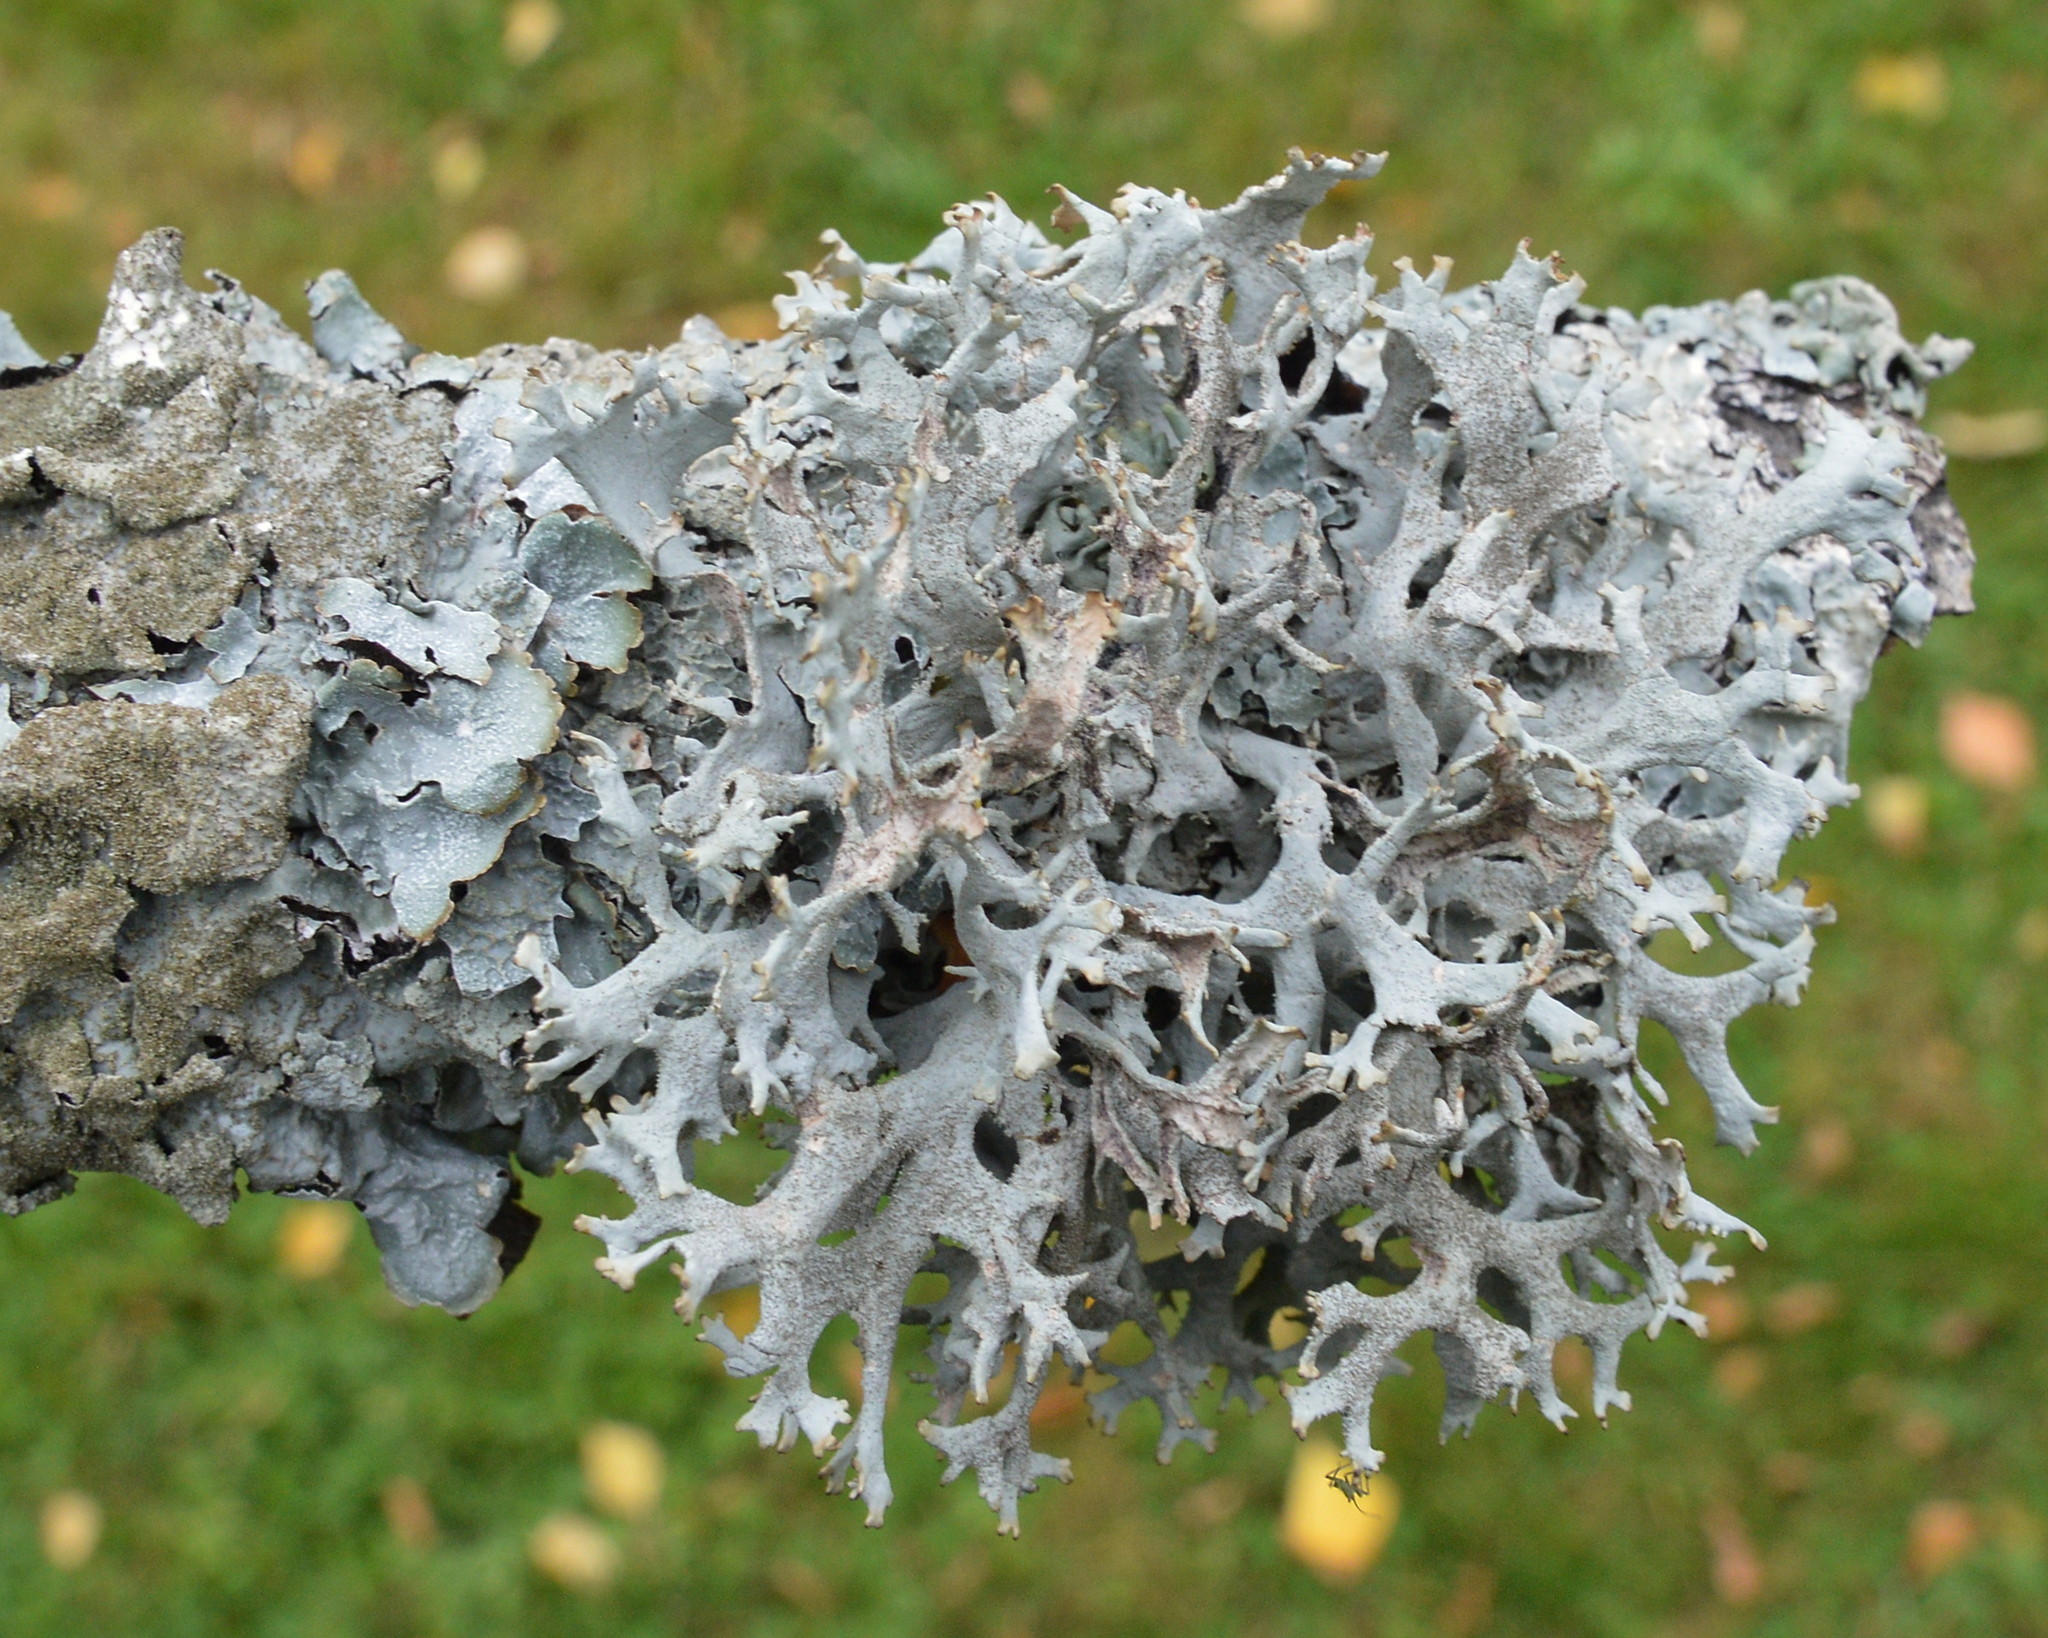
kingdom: Fungi
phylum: Ascomycota
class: Lecanoromycetes
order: Lecanorales
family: Parmeliaceae
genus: Pseudevernia
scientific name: Pseudevernia furfuracea
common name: Tree moss
